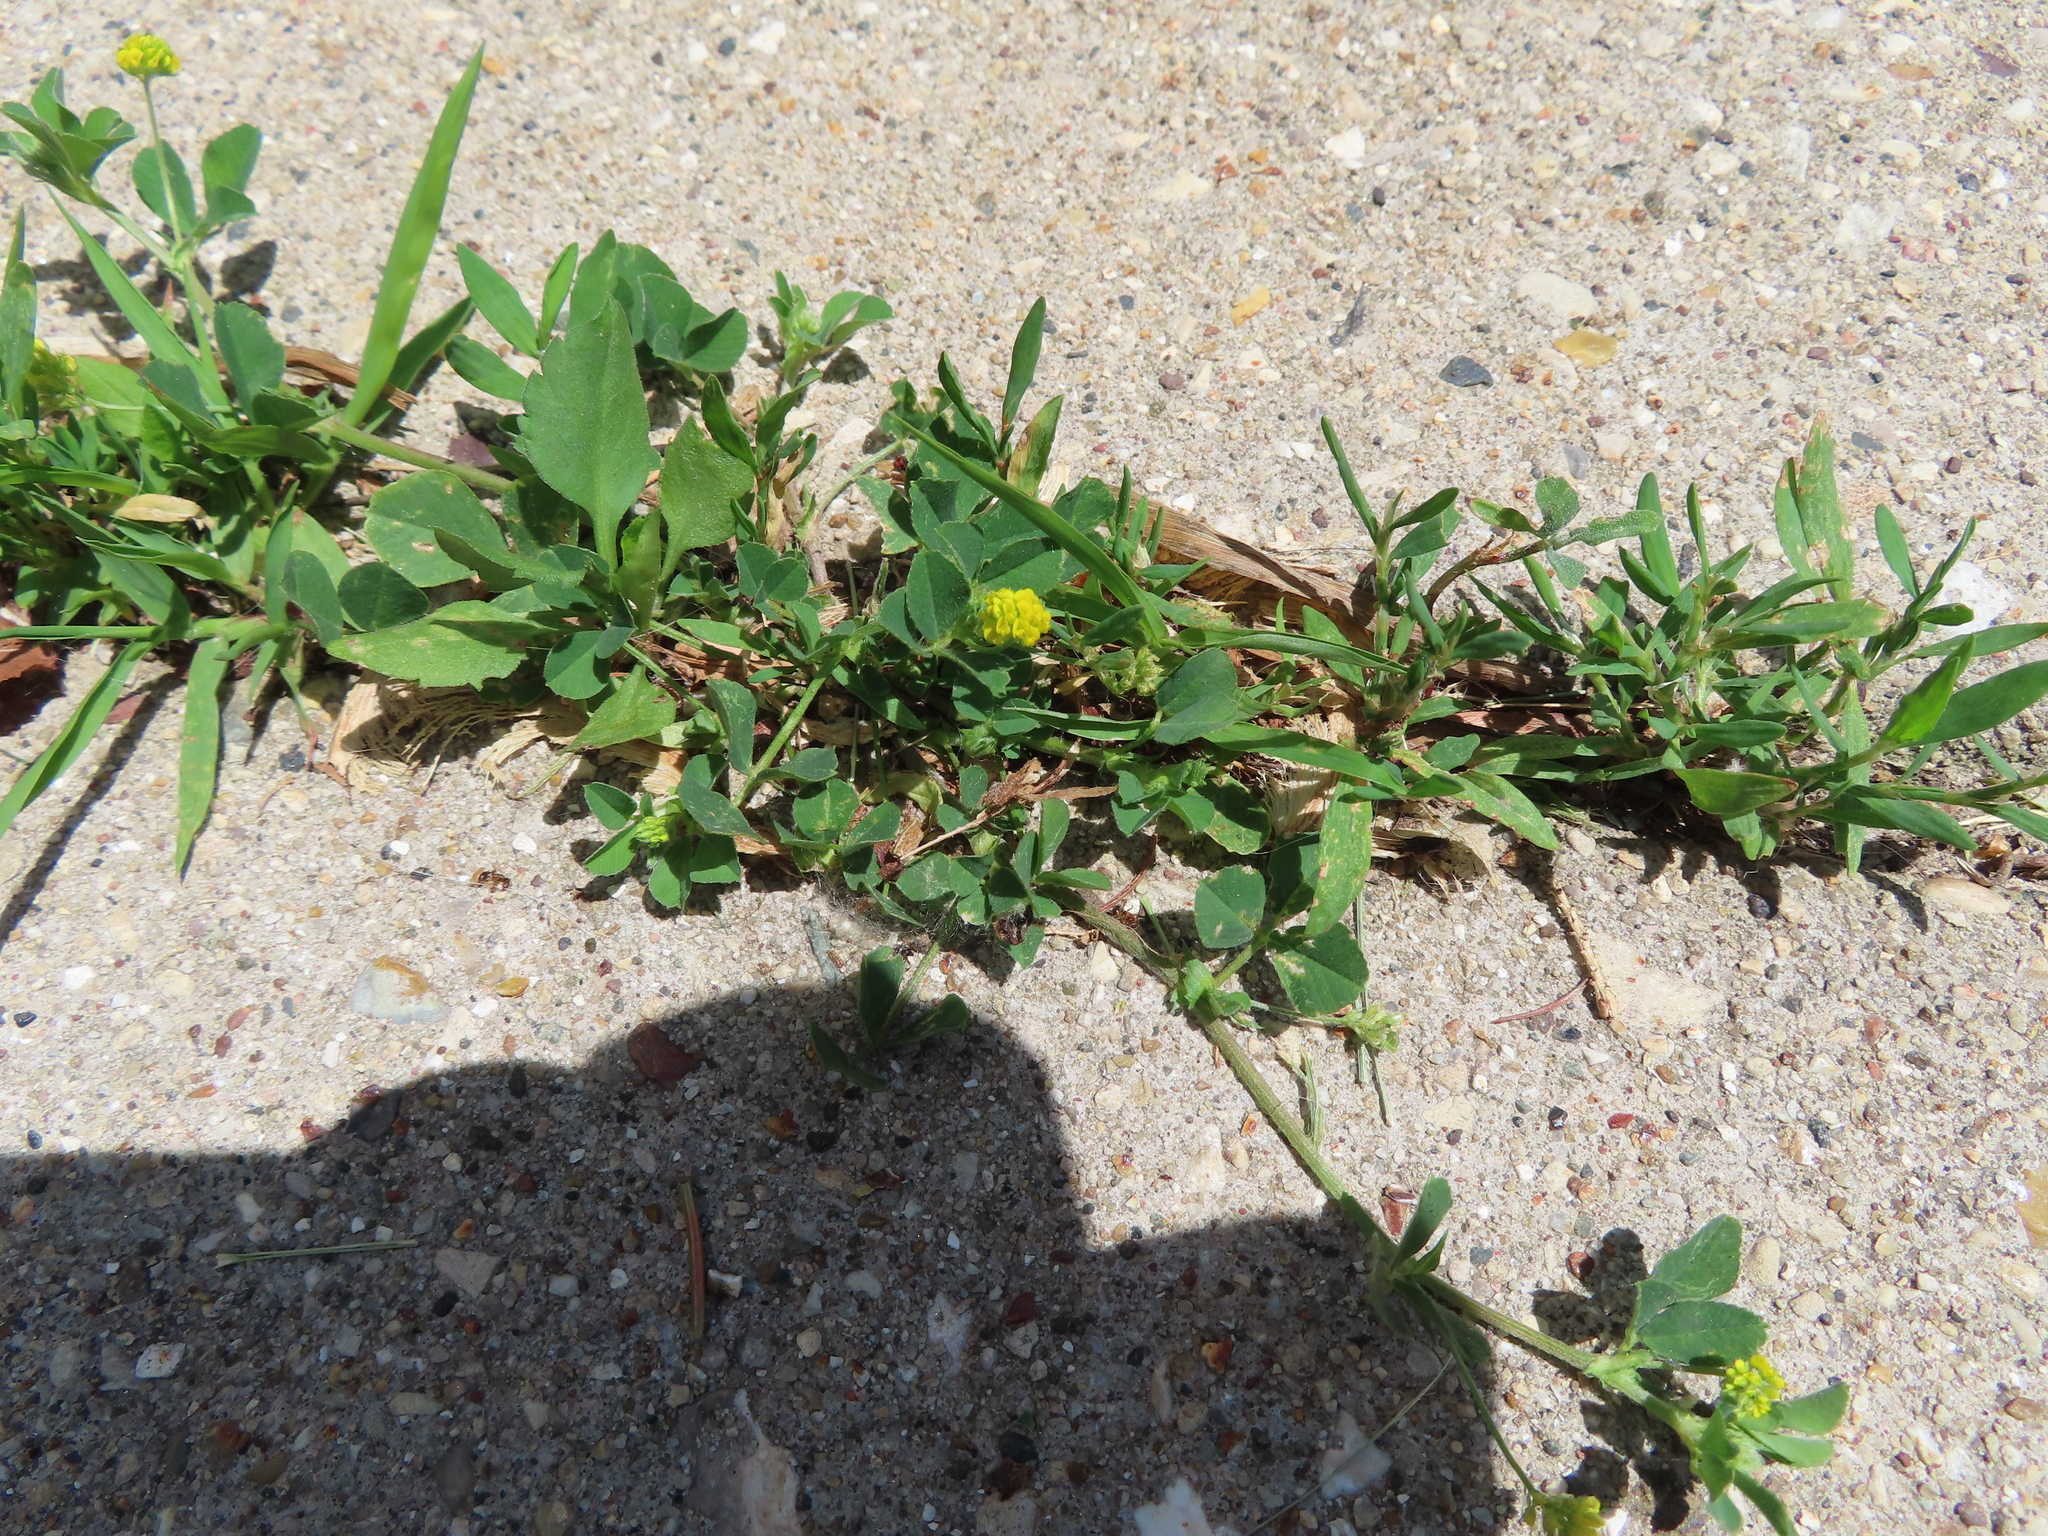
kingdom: Plantae
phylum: Tracheophyta
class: Magnoliopsida
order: Fabales
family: Fabaceae
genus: Medicago
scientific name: Medicago lupulina
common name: Black medick
